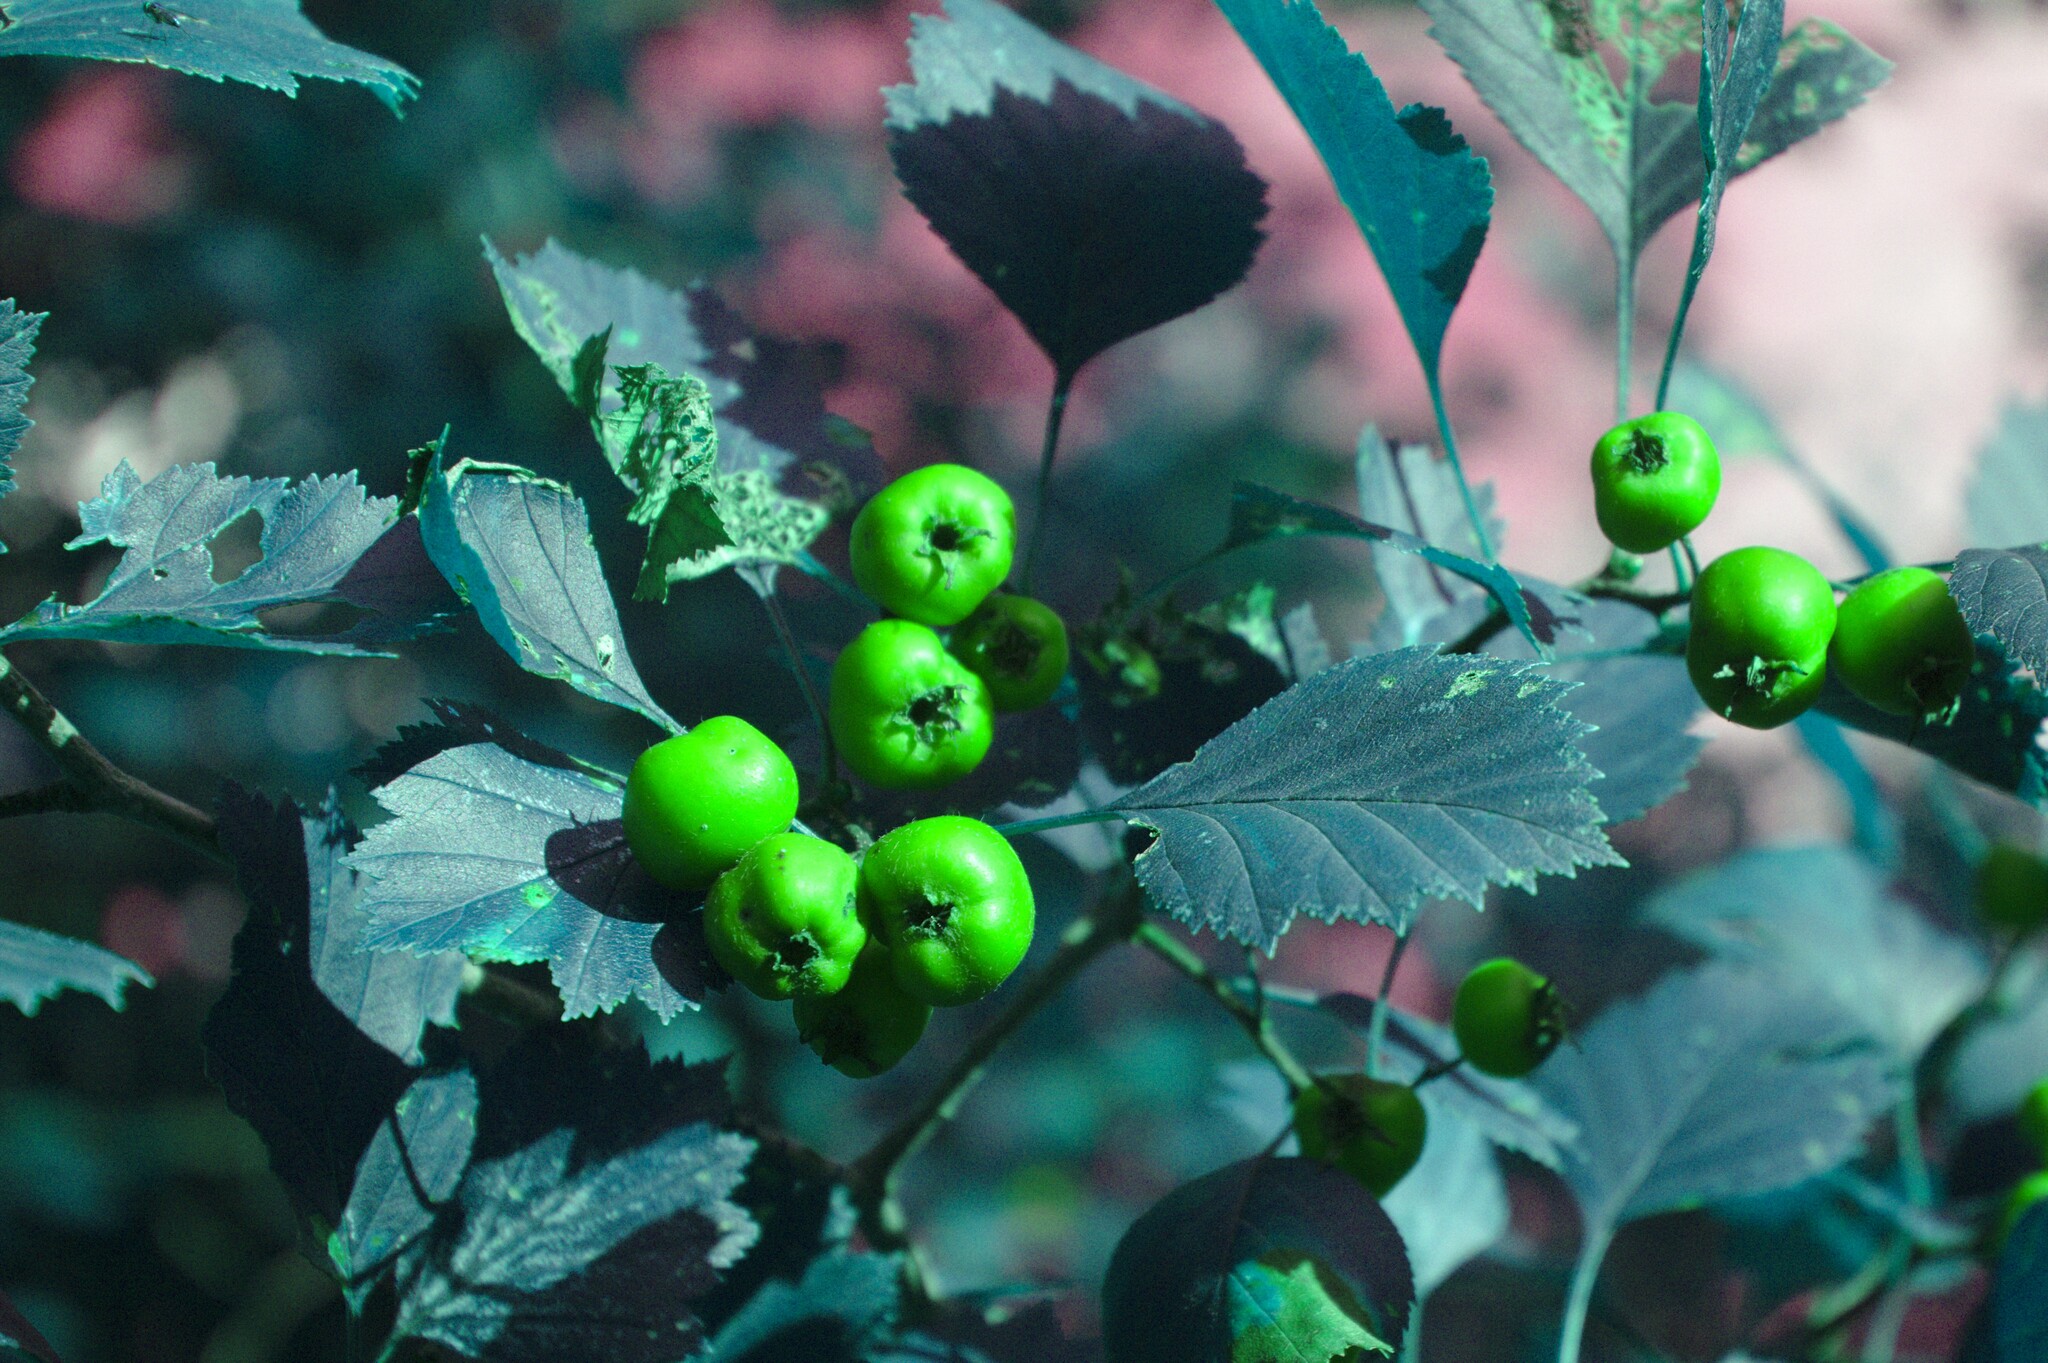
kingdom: Plantae
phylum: Tracheophyta
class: Magnoliopsida
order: Rosales
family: Rosaceae
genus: Crataegus
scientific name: Crataegus chrysocarpa
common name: Fire-berry hawthorn
